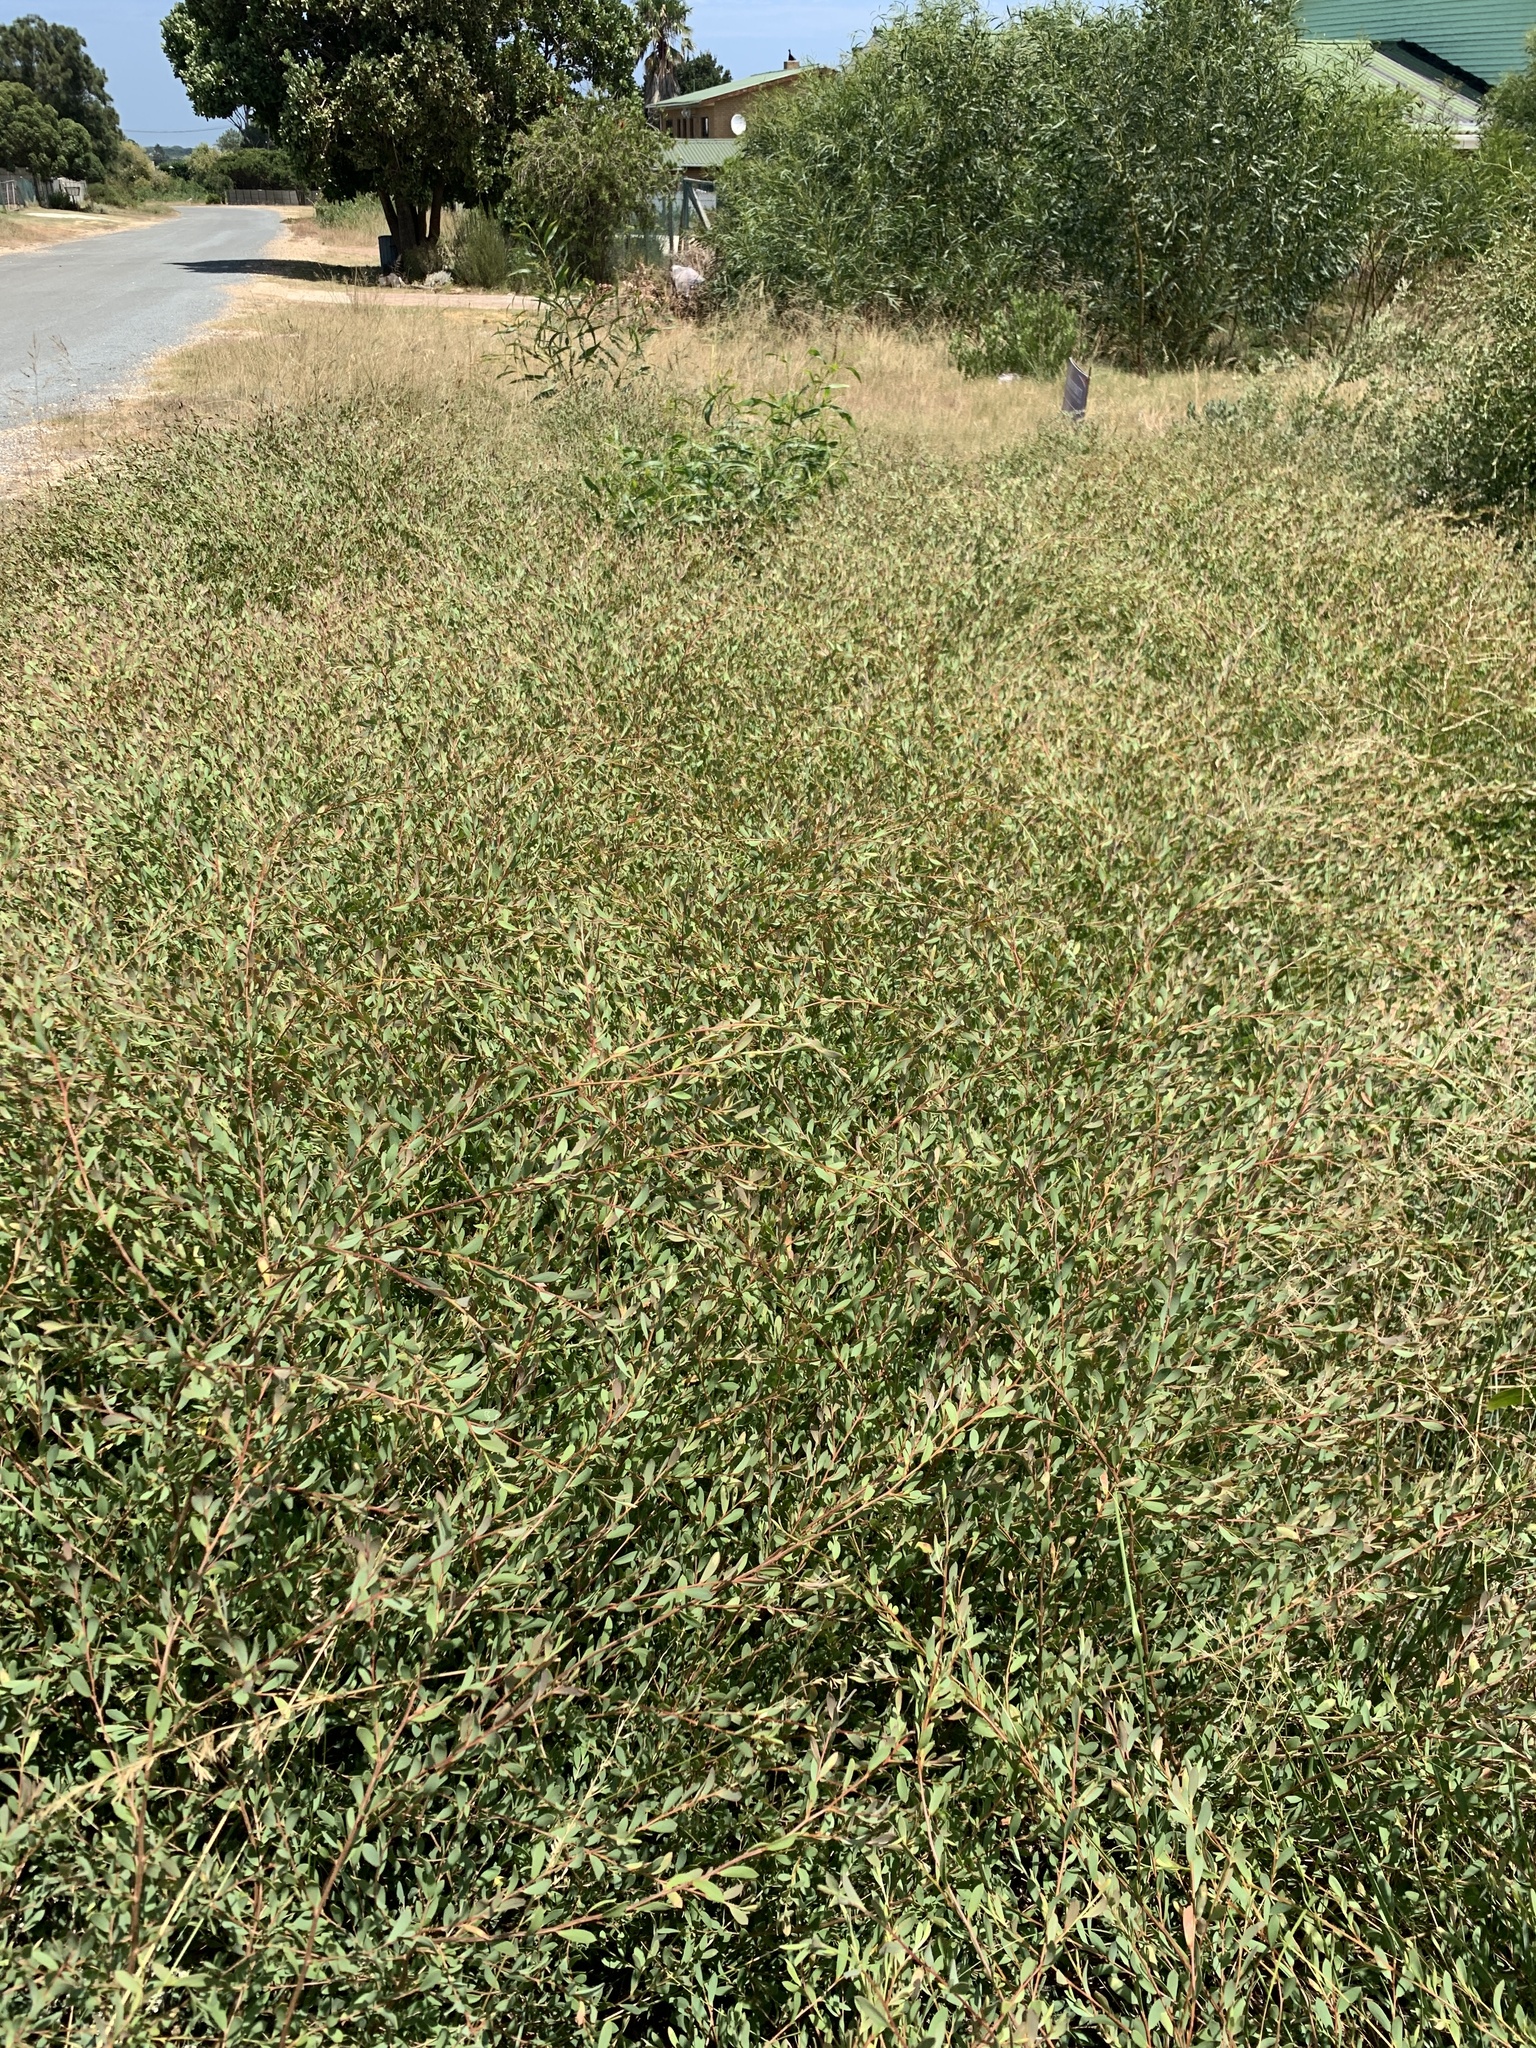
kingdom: Plantae
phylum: Tracheophyta
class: Magnoliopsida
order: Myrtales
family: Myrtaceae
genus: Leptospermum
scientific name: Leptospermum laevigatum
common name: Australian teatree
